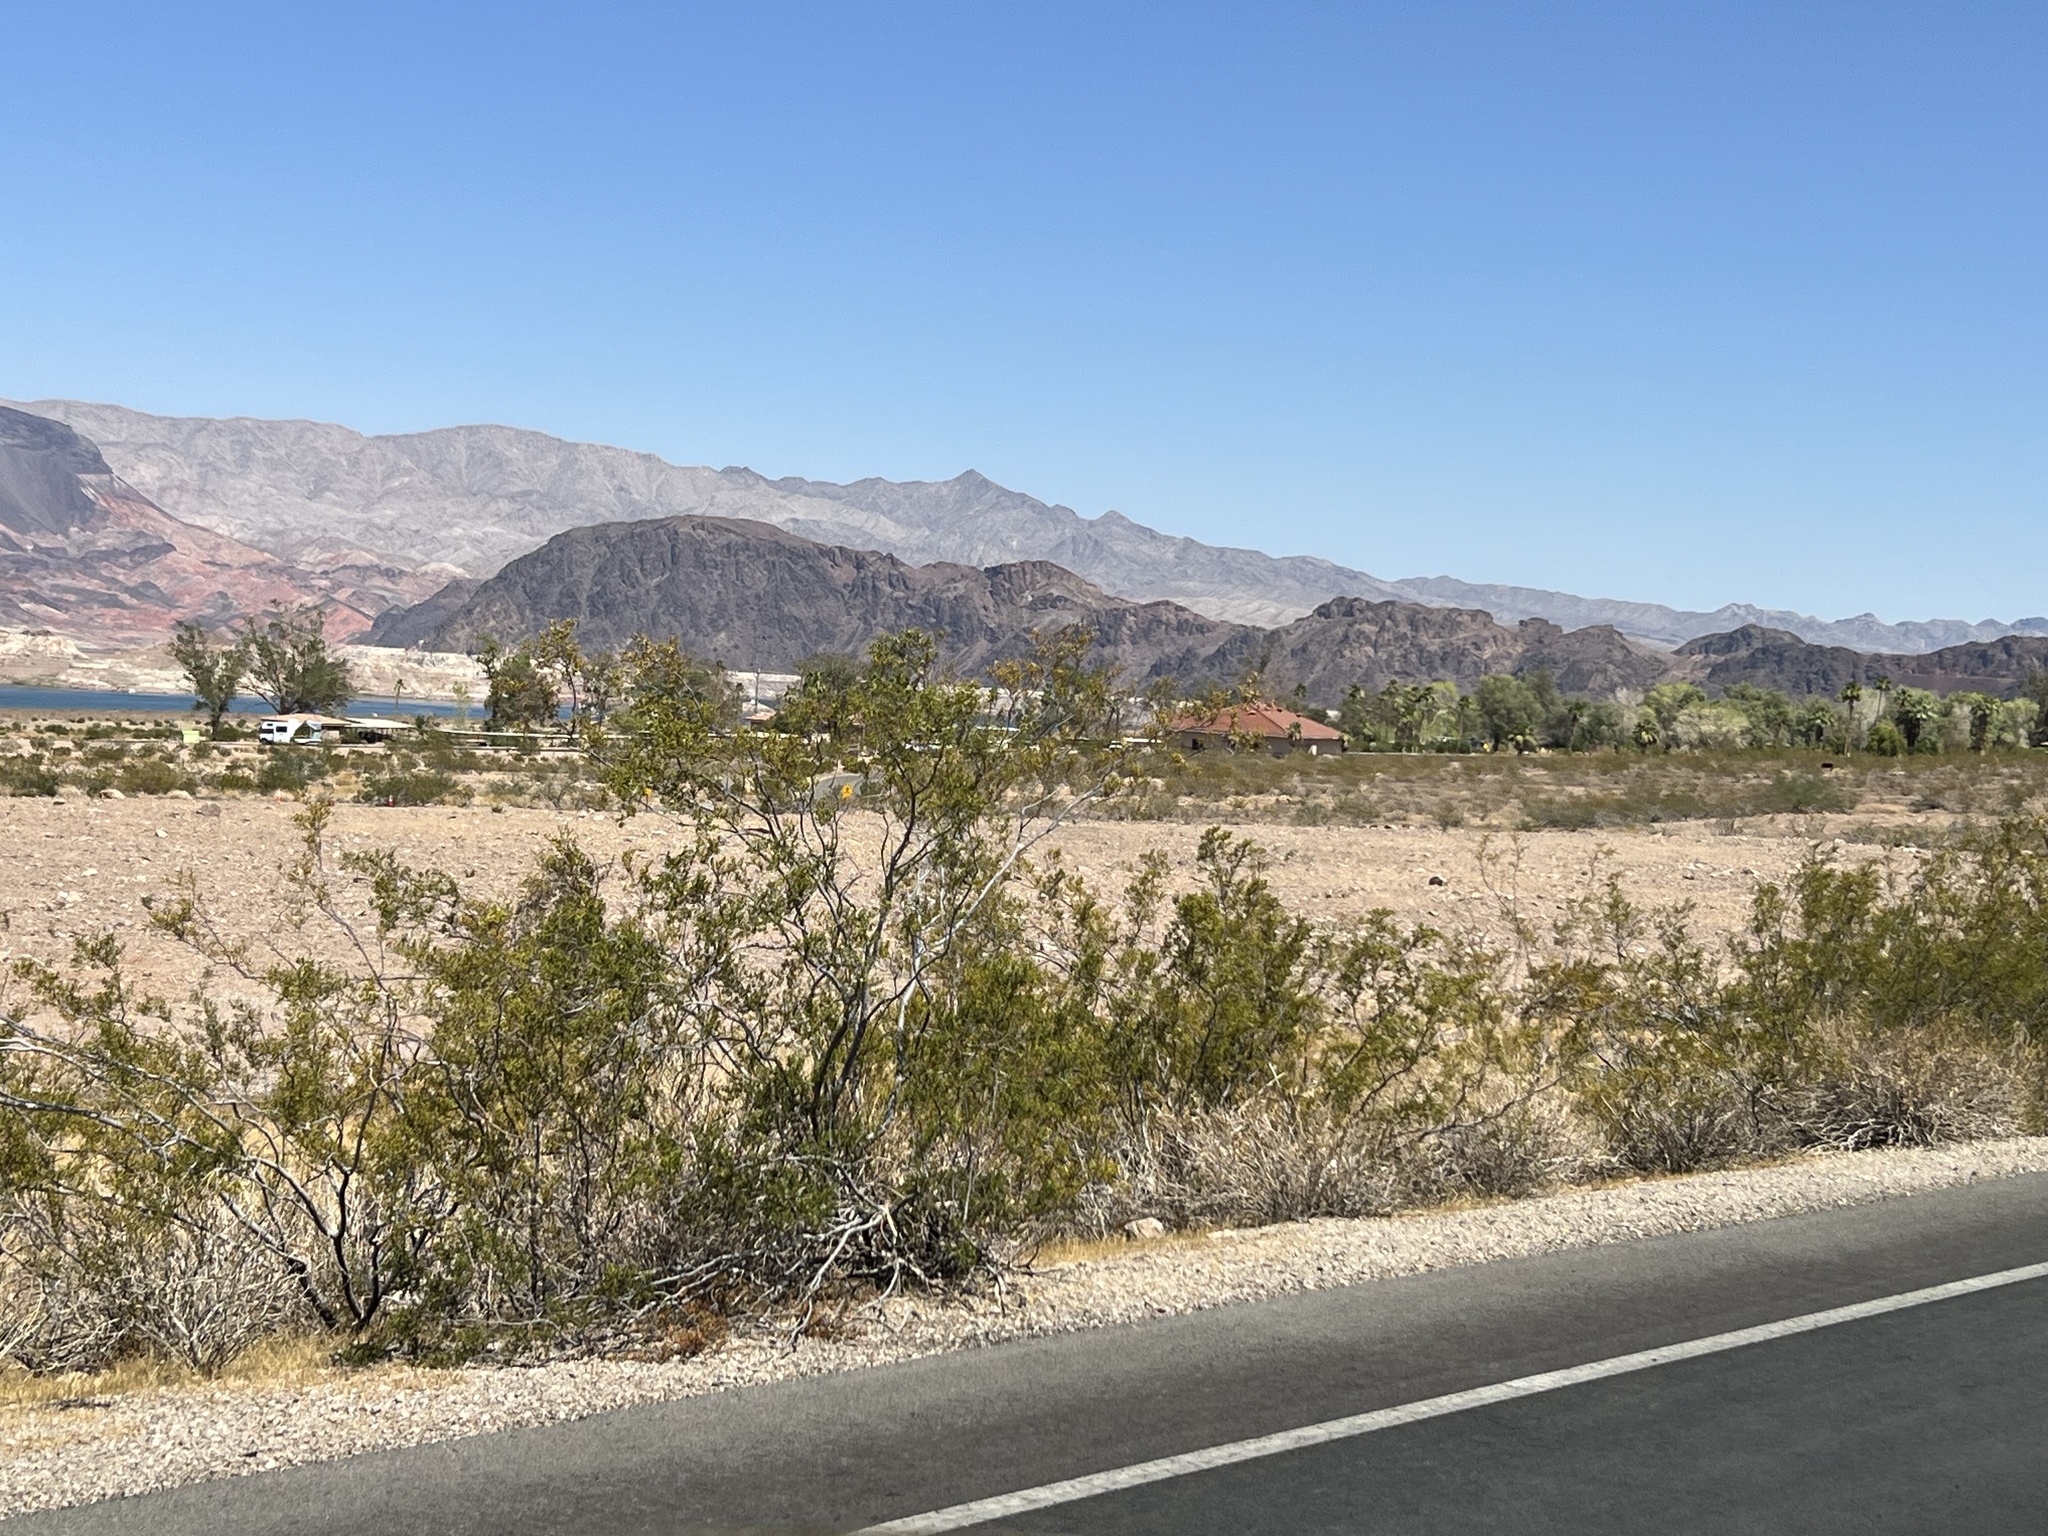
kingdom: Plantae
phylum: Tracheophyta
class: Magnoliopsida
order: Zygophyllales
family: Zygophyllaceae
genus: Larrea
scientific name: Larrea tridentata
